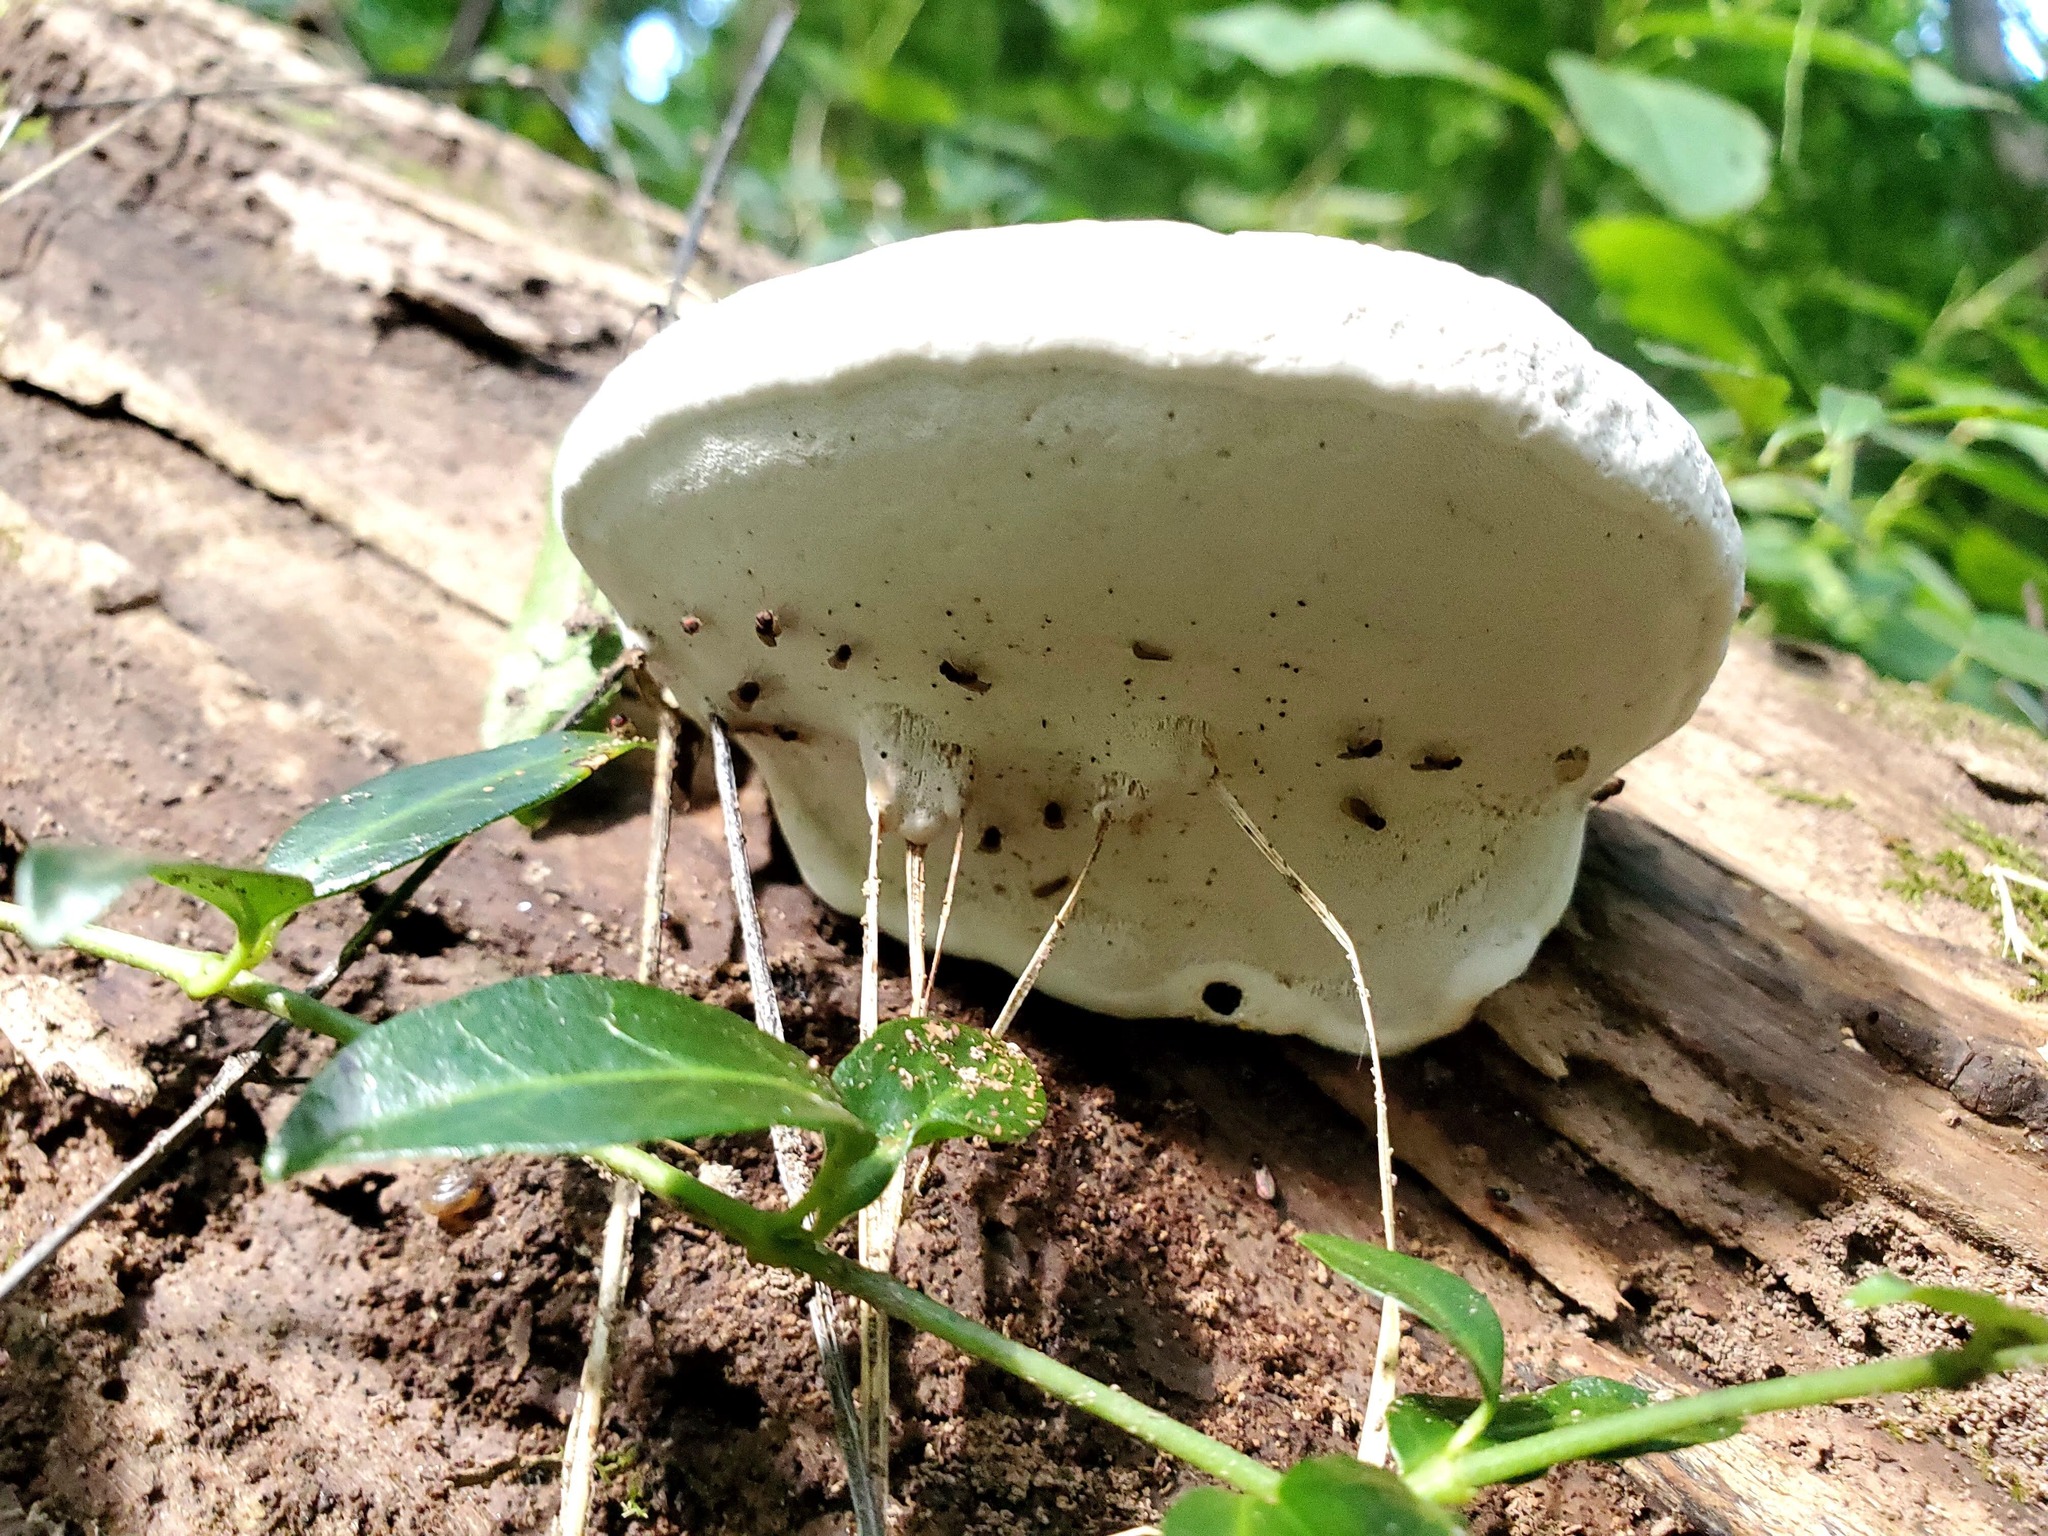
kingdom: Fungi
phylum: Basidiomycota
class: Agaricomycetes
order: Polyporales
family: Polyporaceae
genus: Ganoderma
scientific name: Ganoderma applanatum
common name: Artist's bracket
